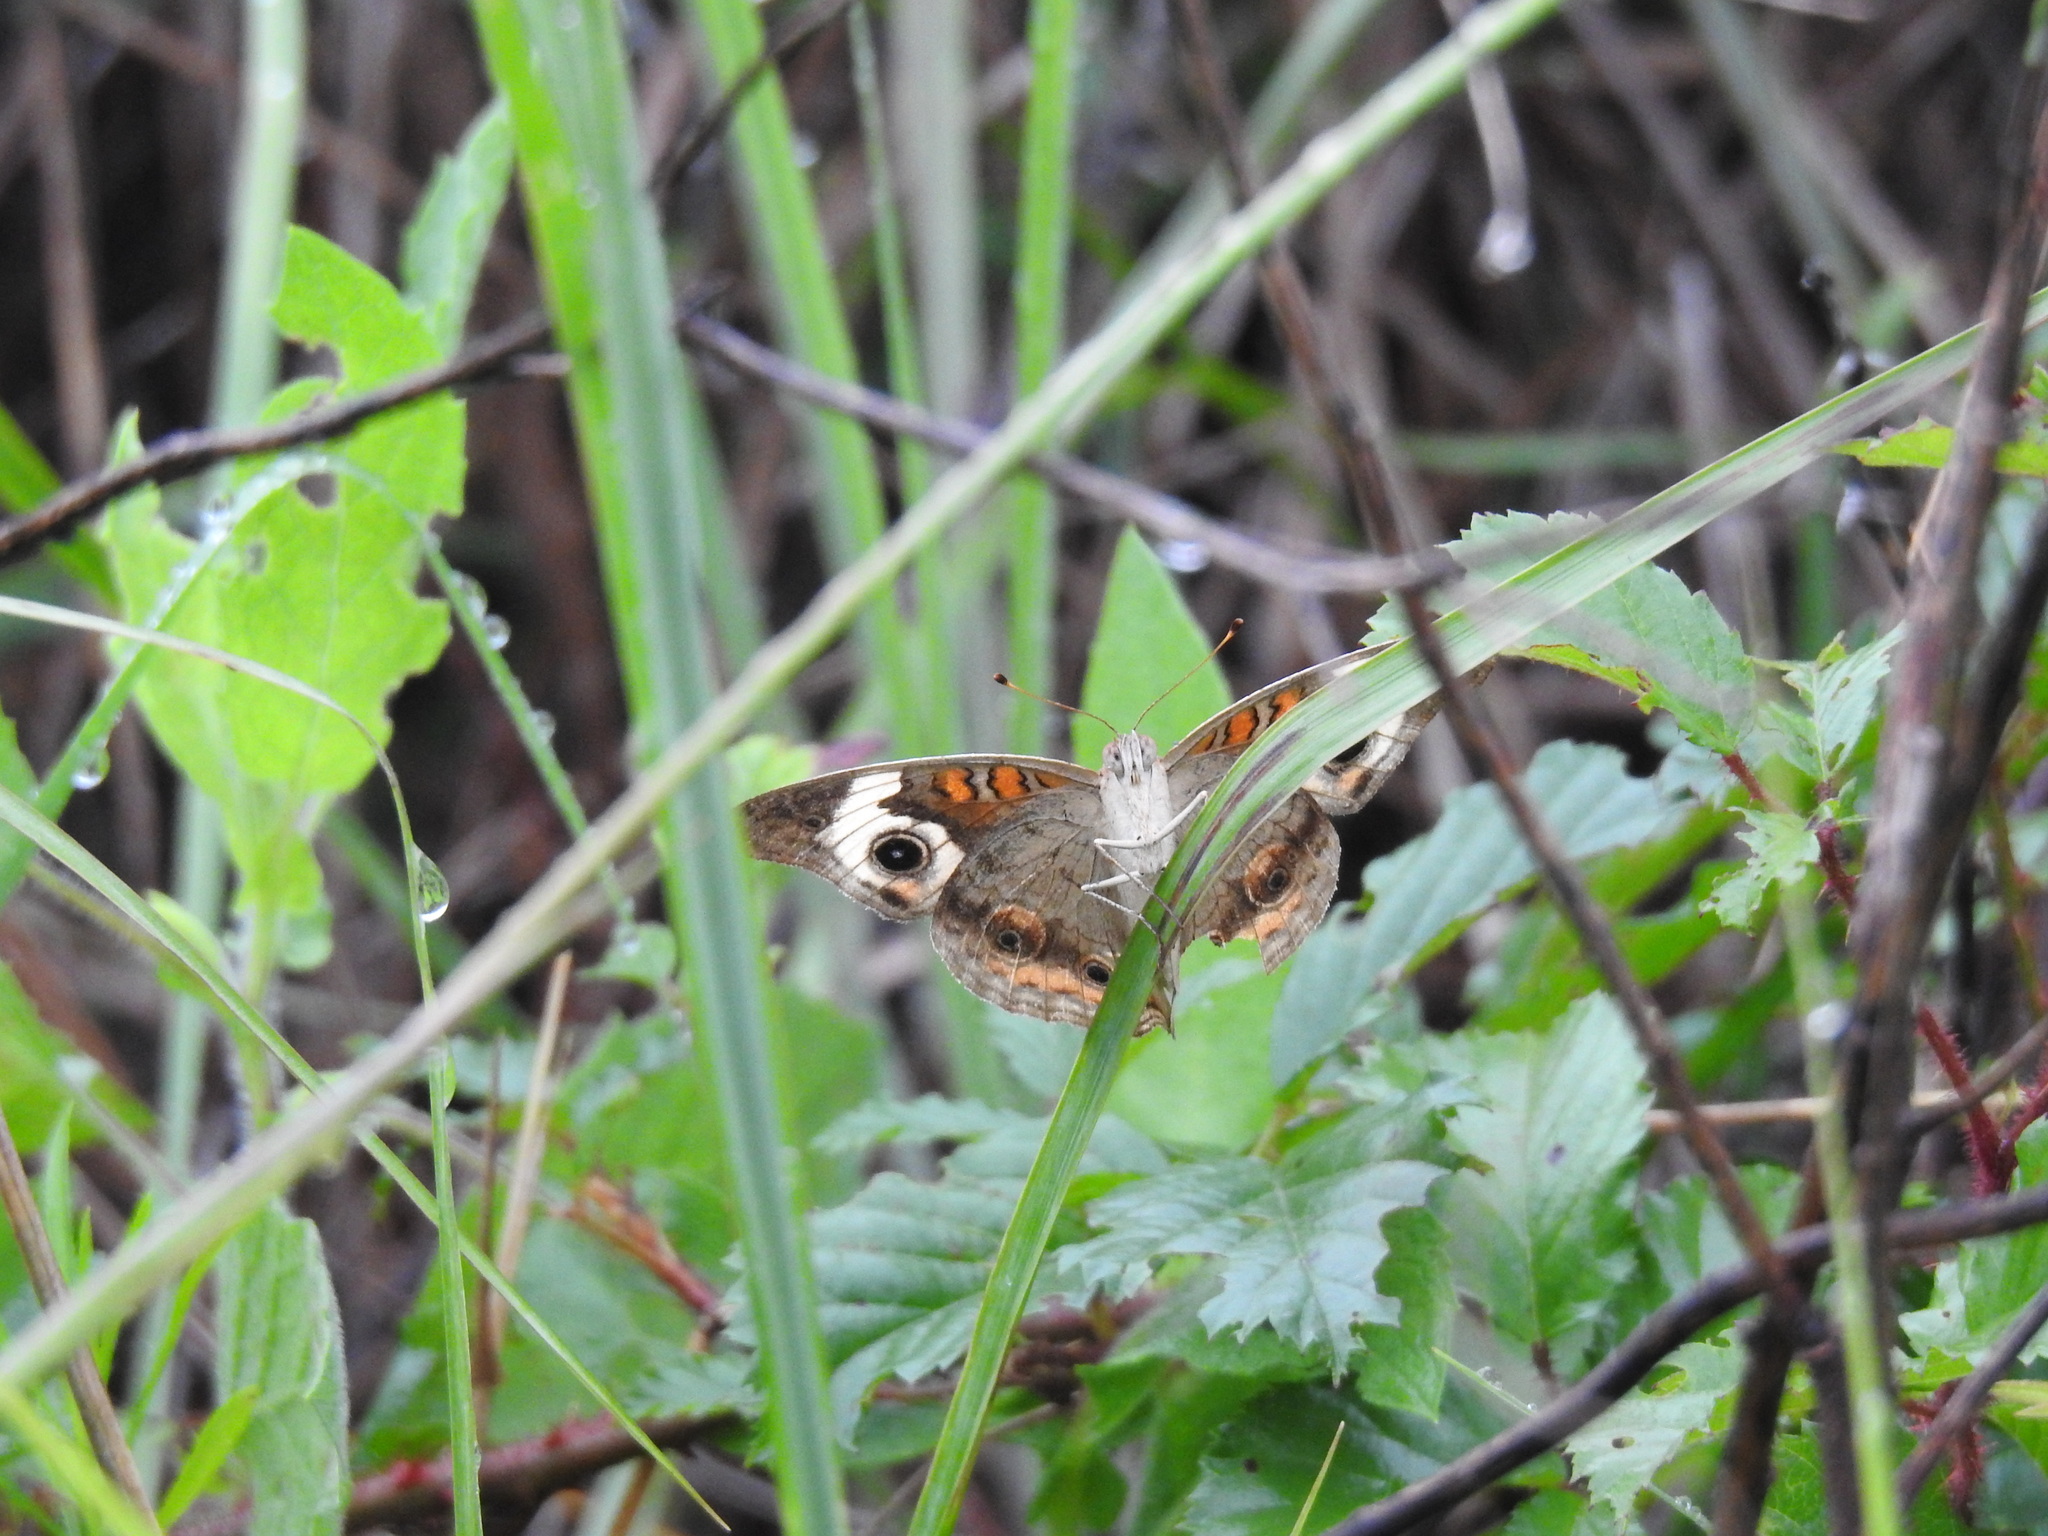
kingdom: Animalia
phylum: Arthropoda
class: Insecta
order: Lepidoptera
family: Nymphalidae
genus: Junonia
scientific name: Junonia coenia
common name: Common buckeye
